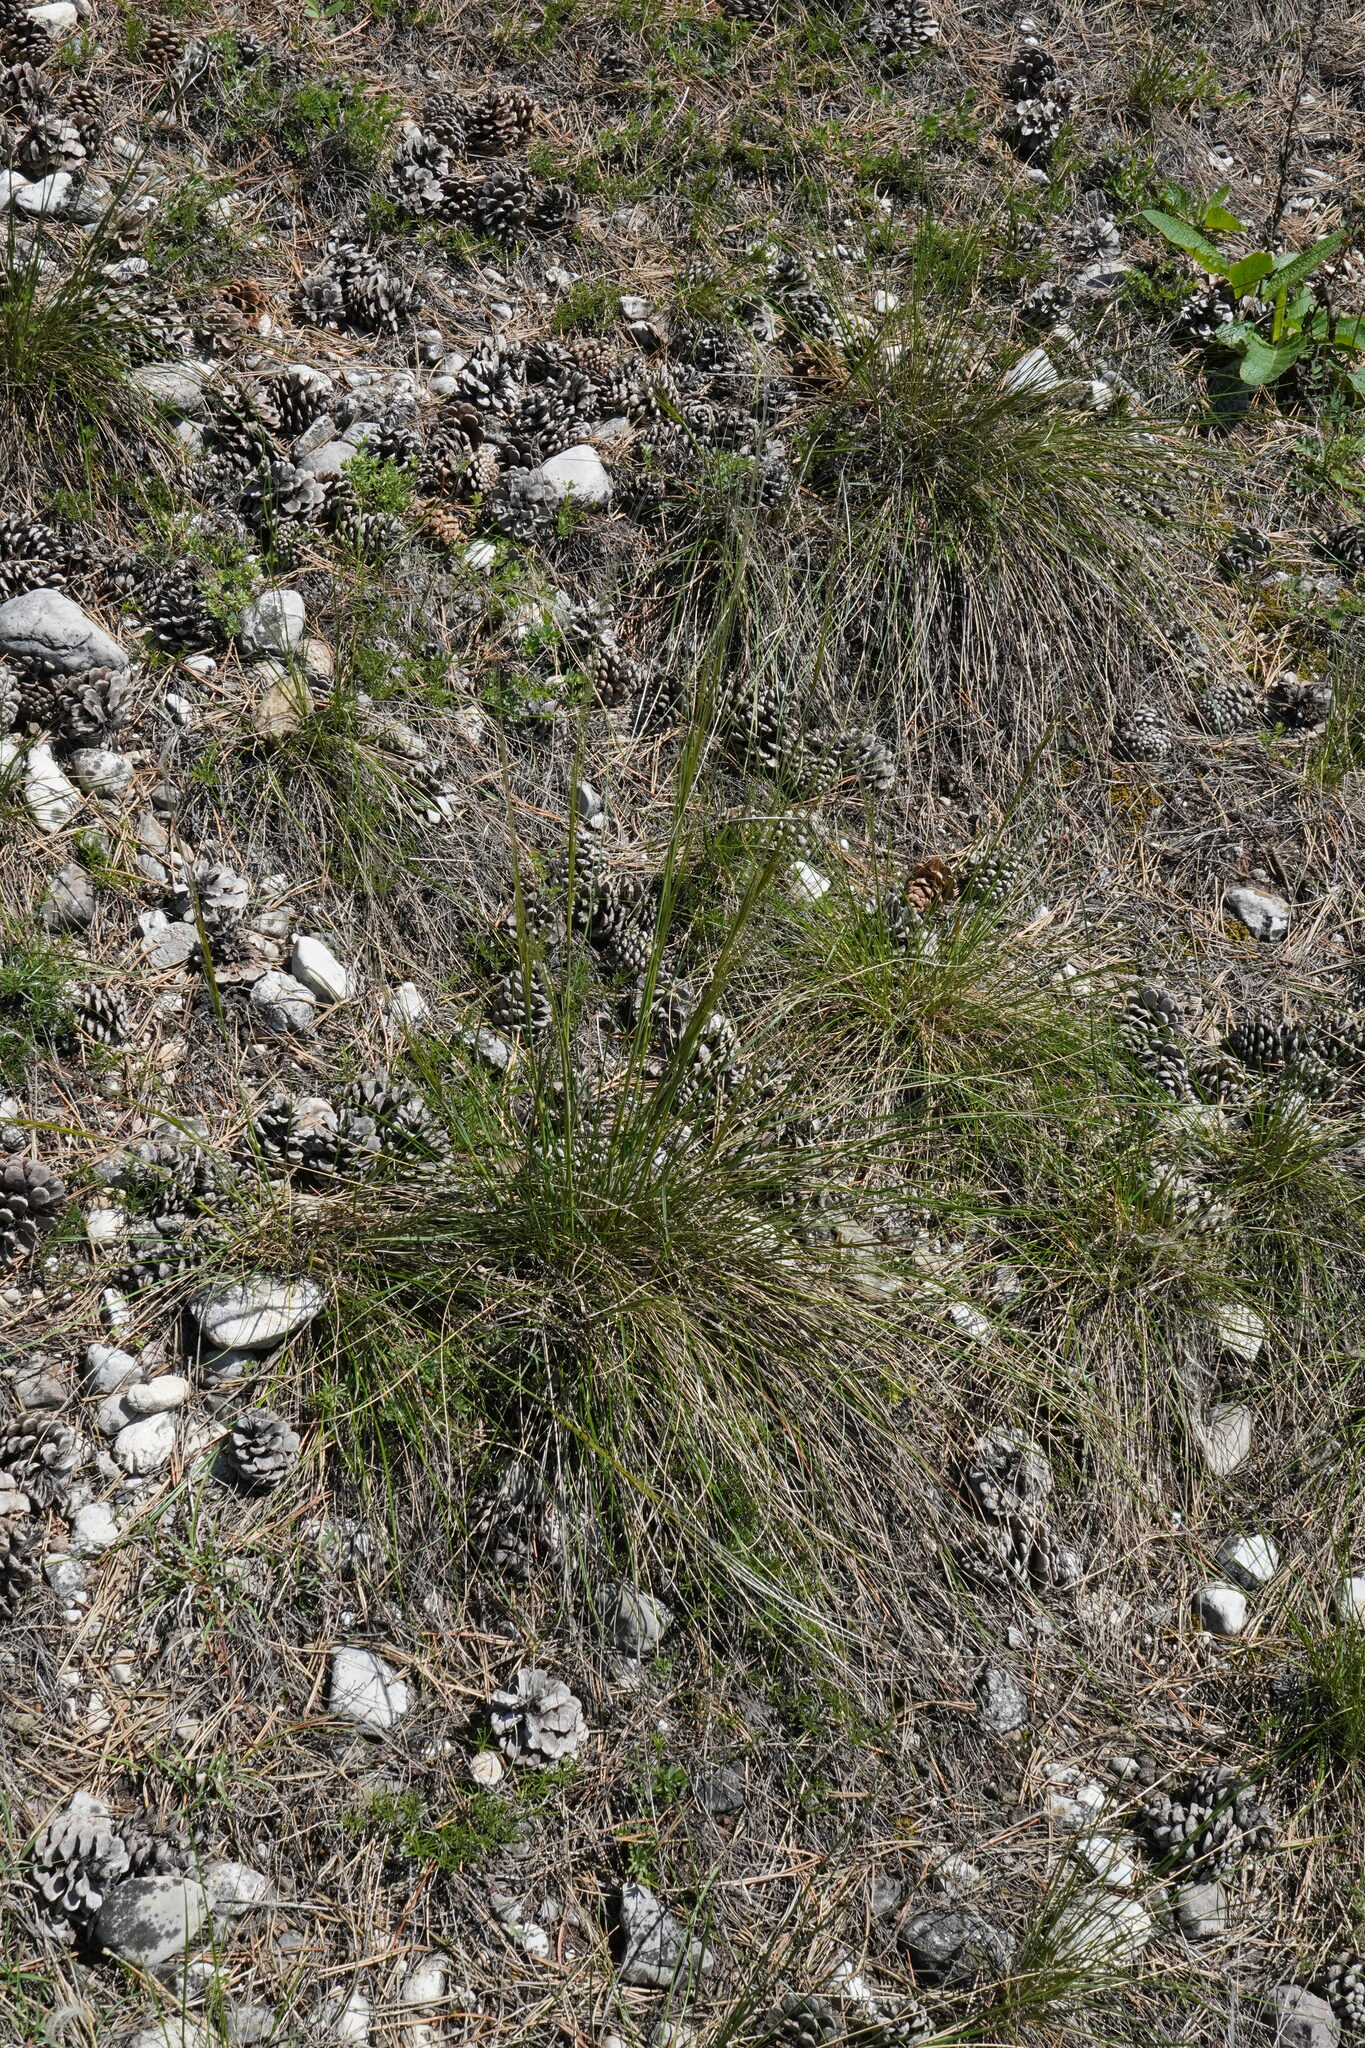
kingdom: Plantae
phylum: Tracheophyta
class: Liliopsida
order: Poales
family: Poaceae
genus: Stipa
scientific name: Stipa pennata
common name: European feather grass
